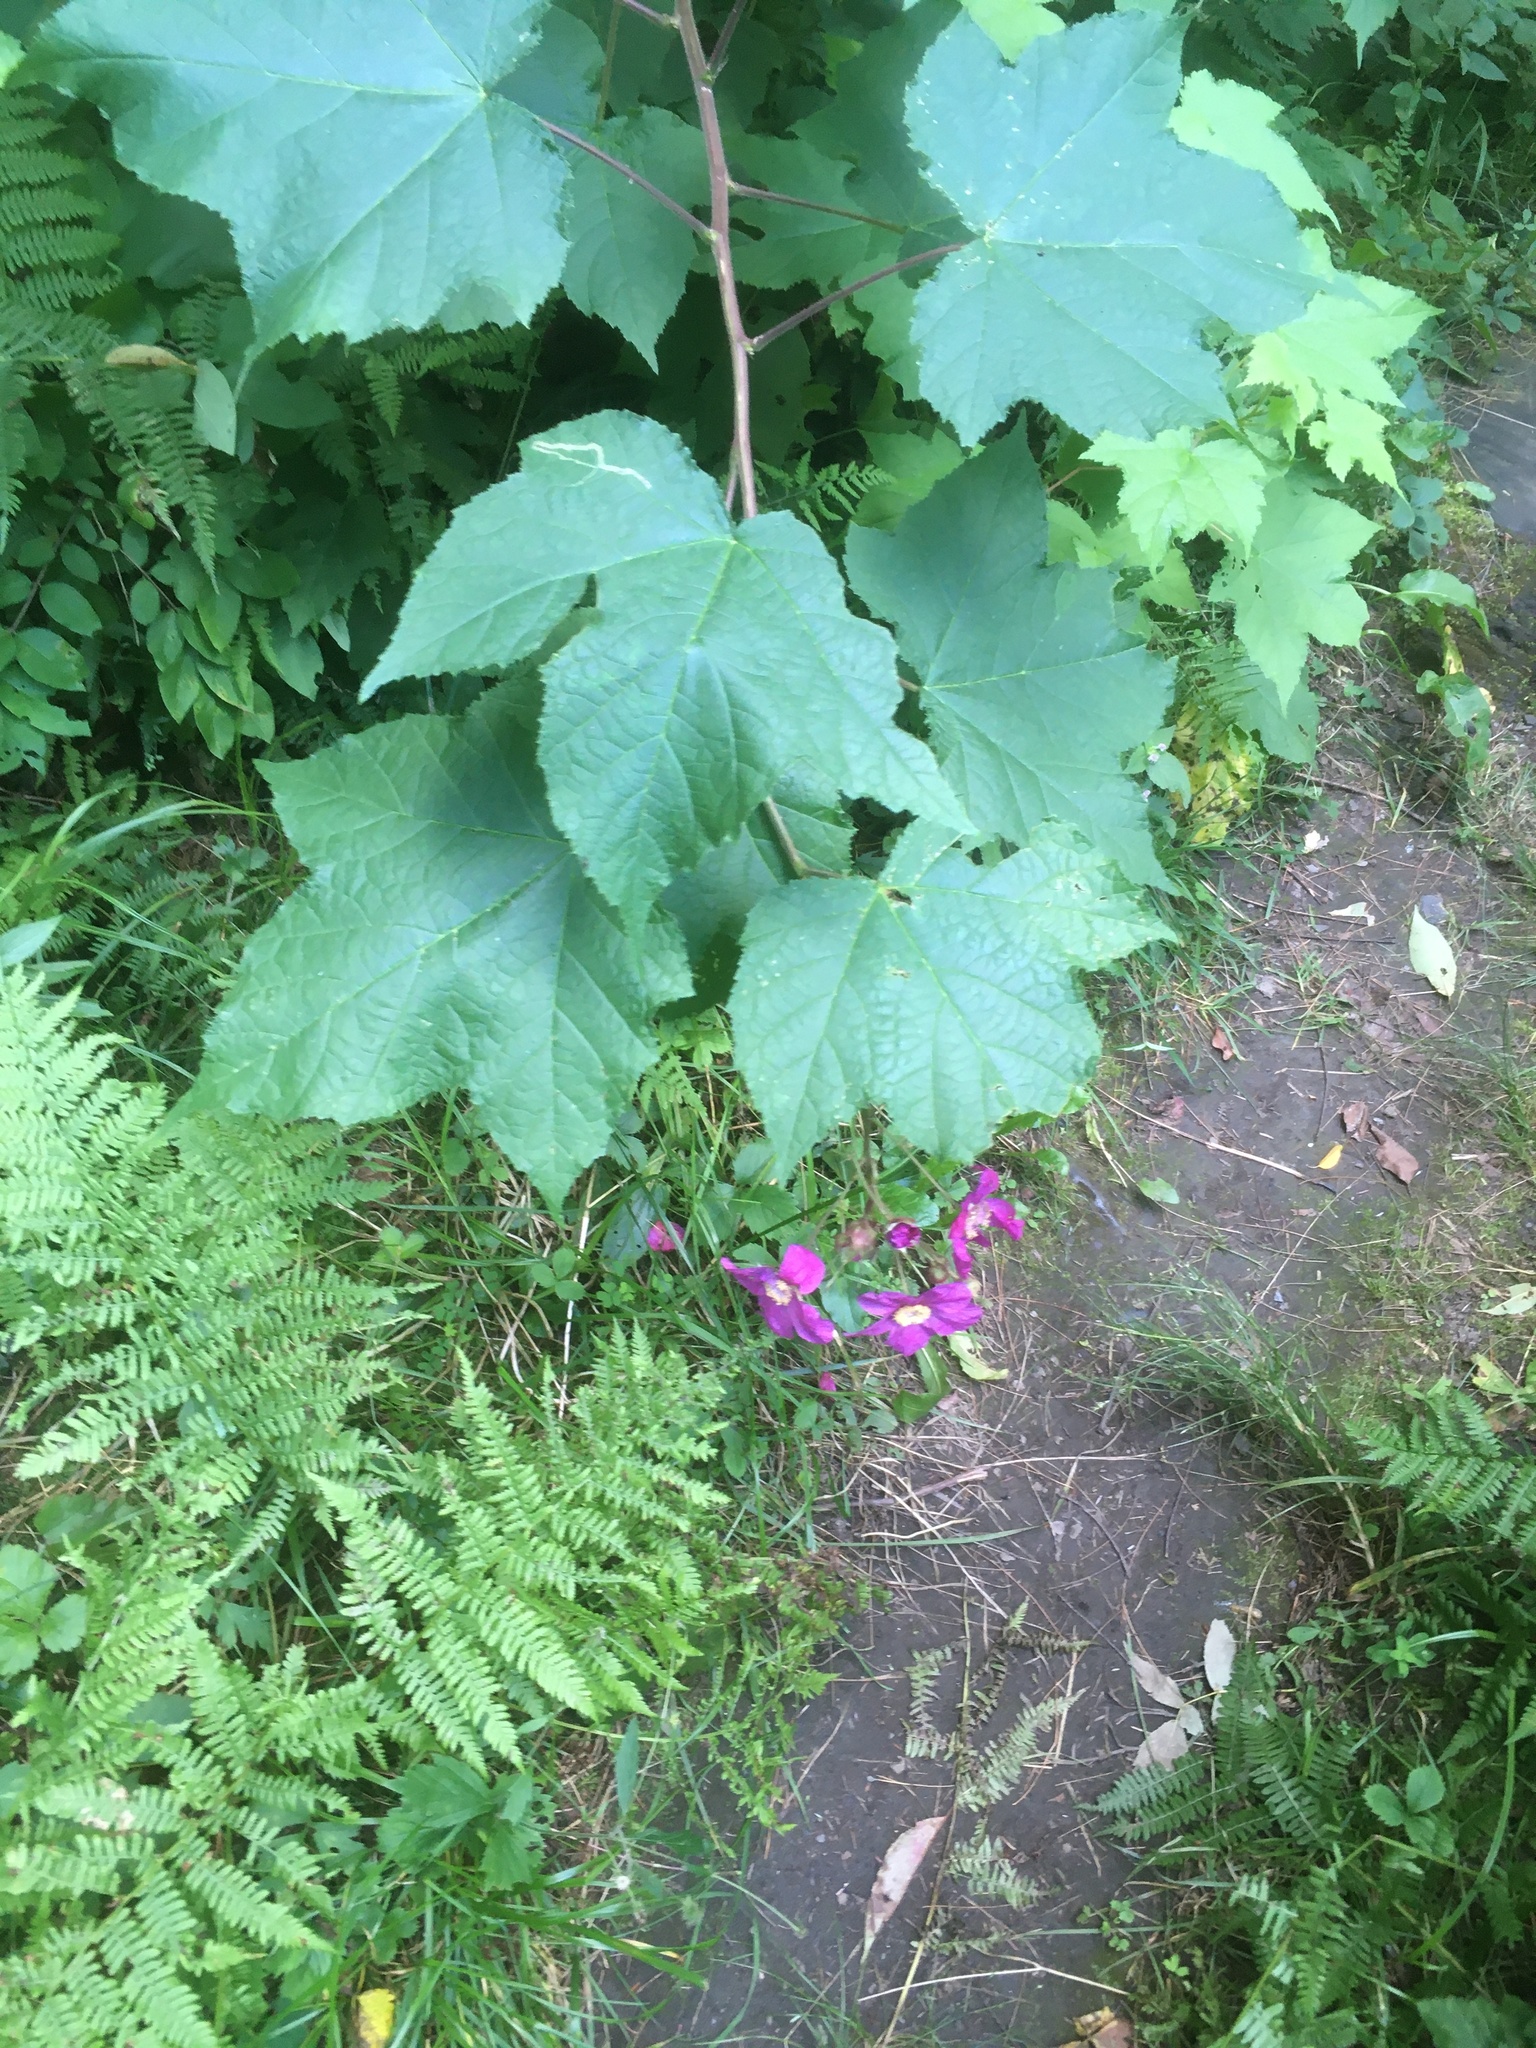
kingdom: Plantae
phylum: Tracheophyta
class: Magnoliopsida
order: Rosales
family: Rosaceae
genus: Rubus
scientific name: Rubus odoratus
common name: Purple-flowered raspberry
